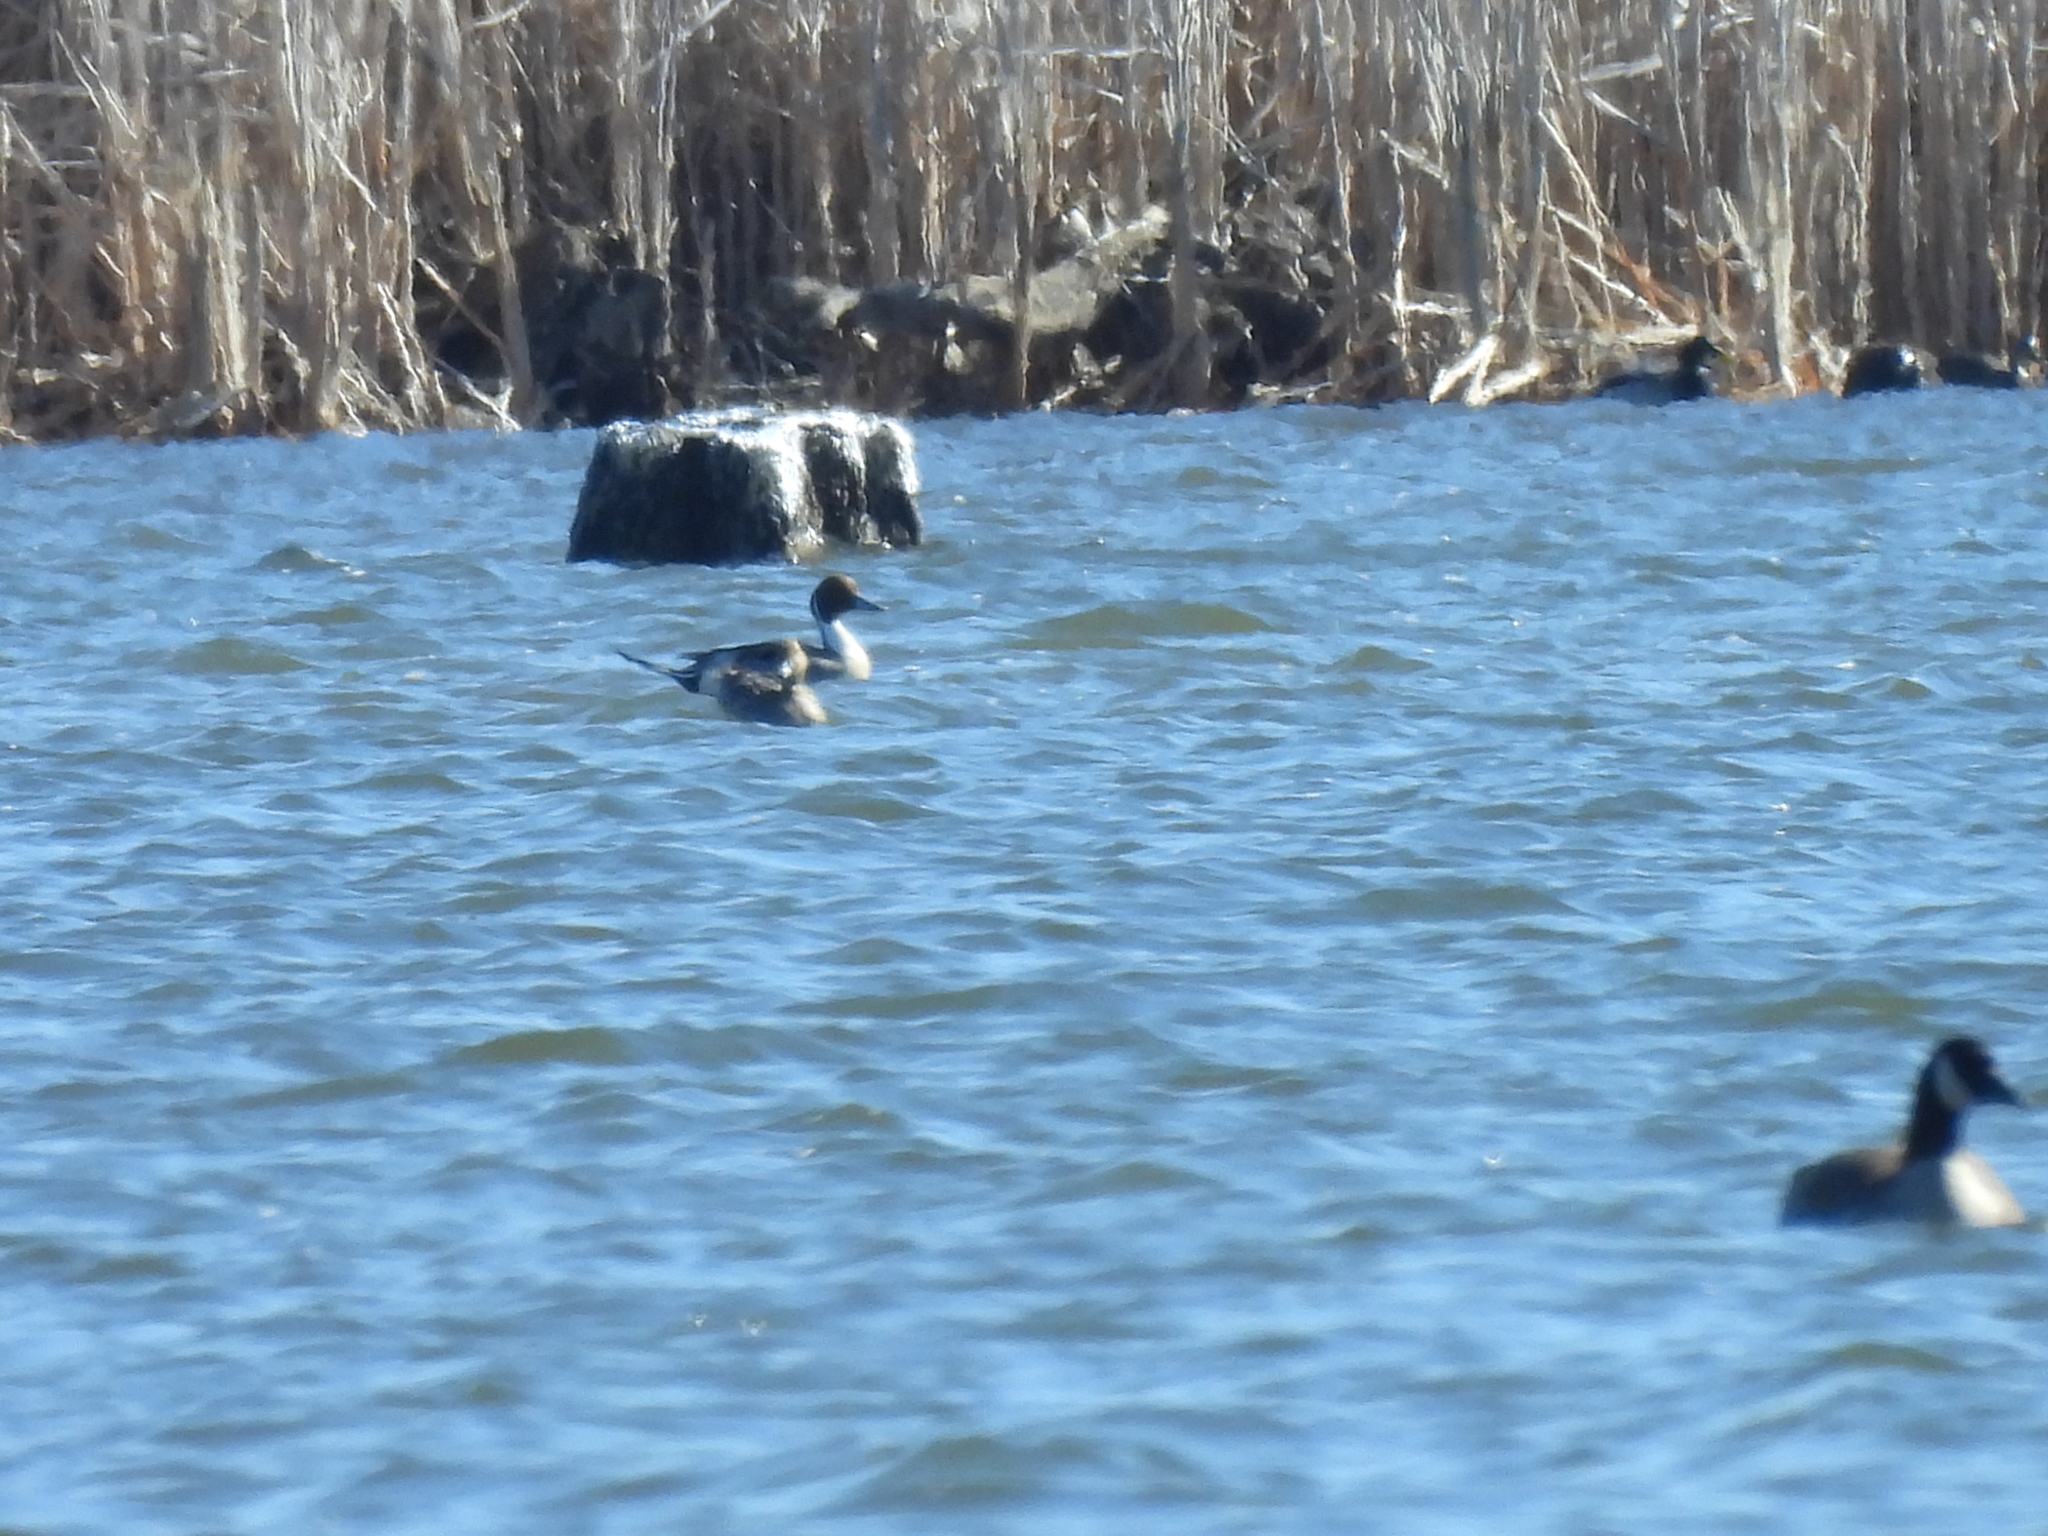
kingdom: Animalia
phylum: Chordata
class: Aves
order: Anseriformes
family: Anatidae
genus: Anas
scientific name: Anas acuta
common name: Northern pintail
